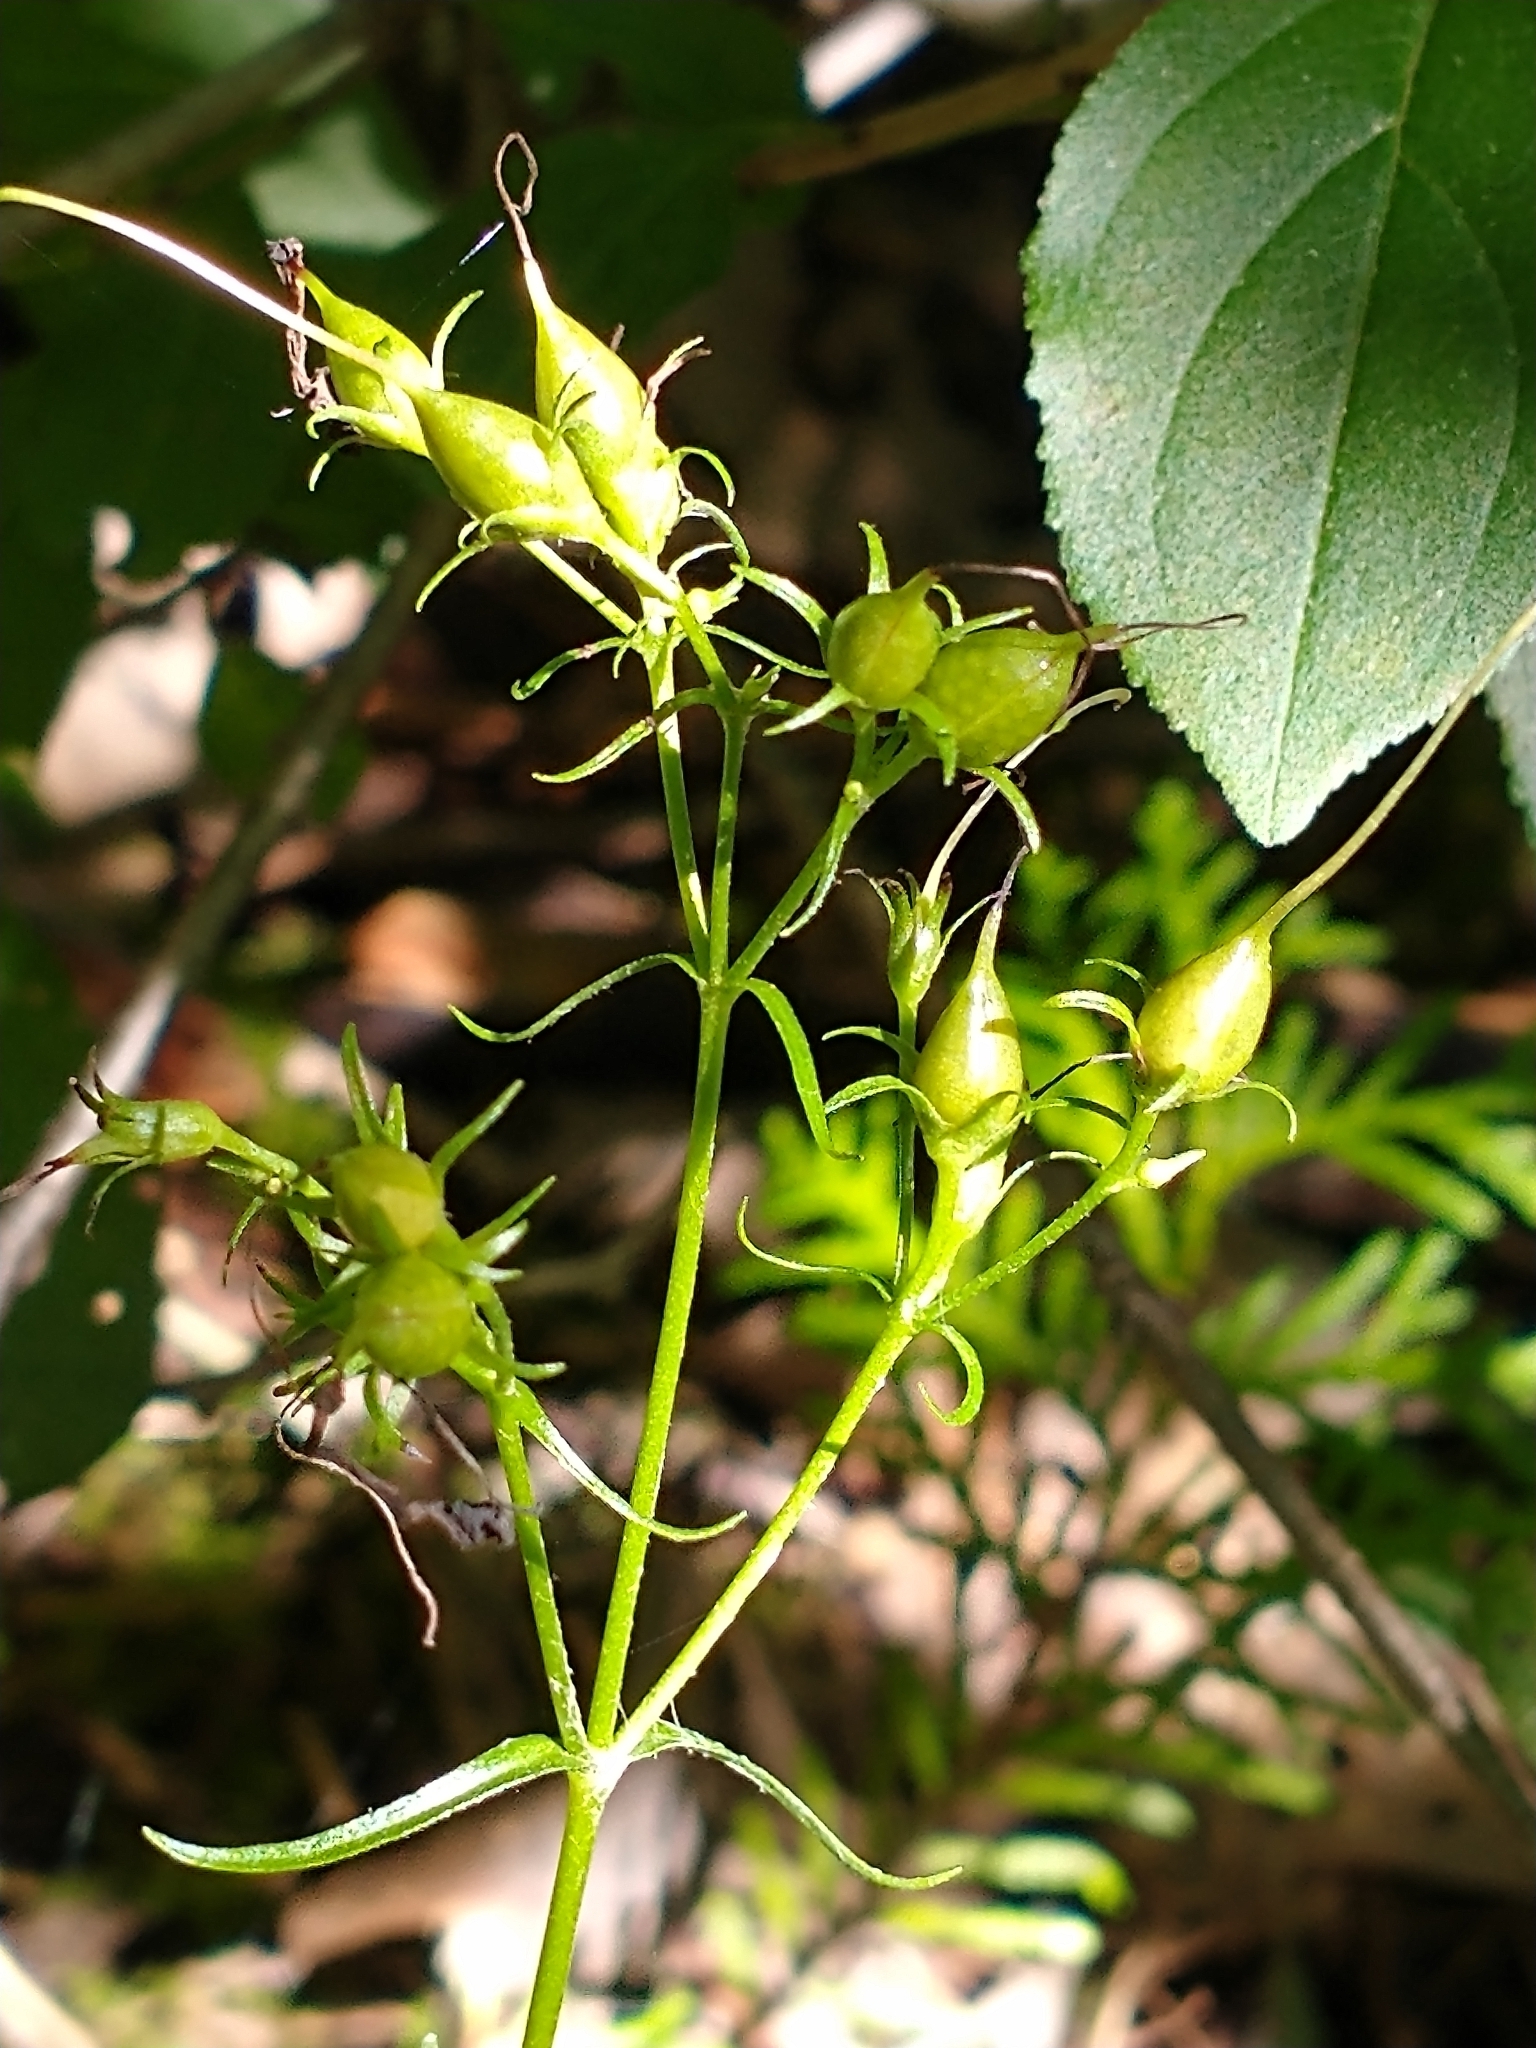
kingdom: Plantae
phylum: Tracheophyta
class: Magnoliopsida
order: Lamiales
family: Plantaginaceae
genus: Penstemon
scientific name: Penstemon digitalis
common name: Foxglove beardtongue
